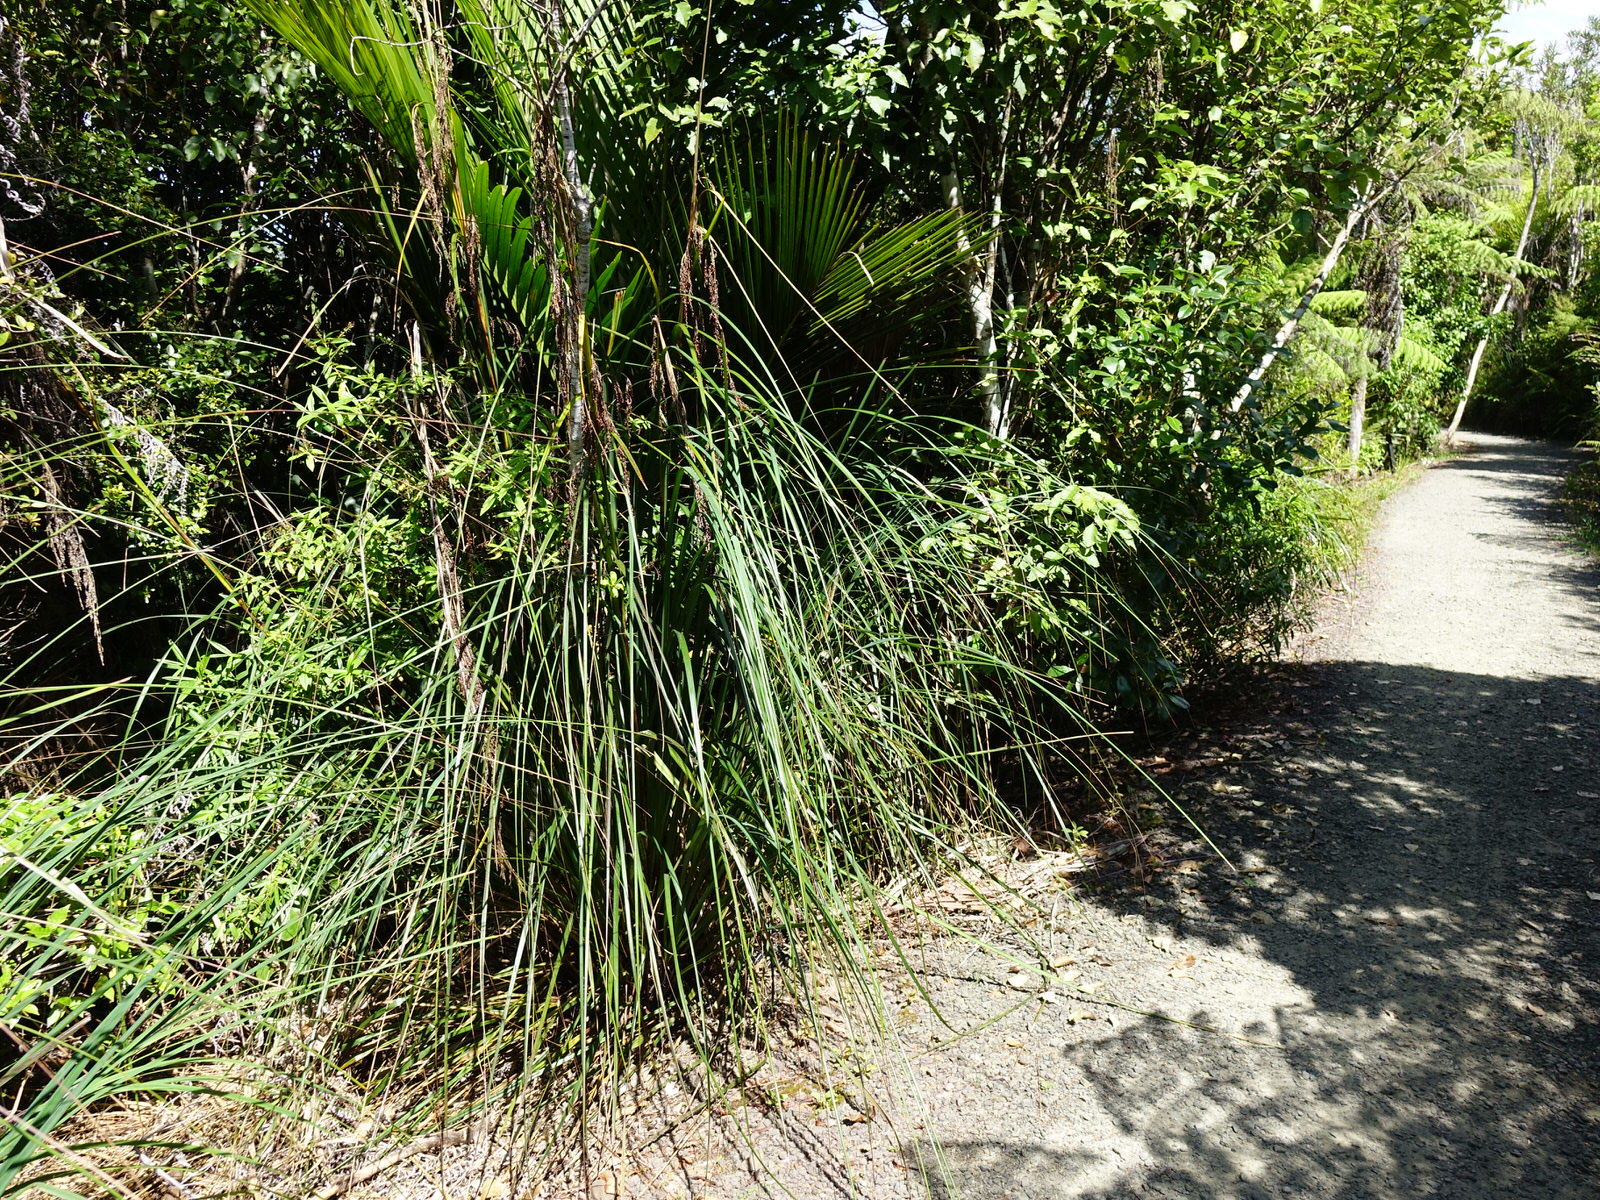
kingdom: Plantae
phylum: Tracheophyta
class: Liliopsida
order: Poales
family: Cyperaceae
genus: Gahnia
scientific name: Gahnia setifolia
